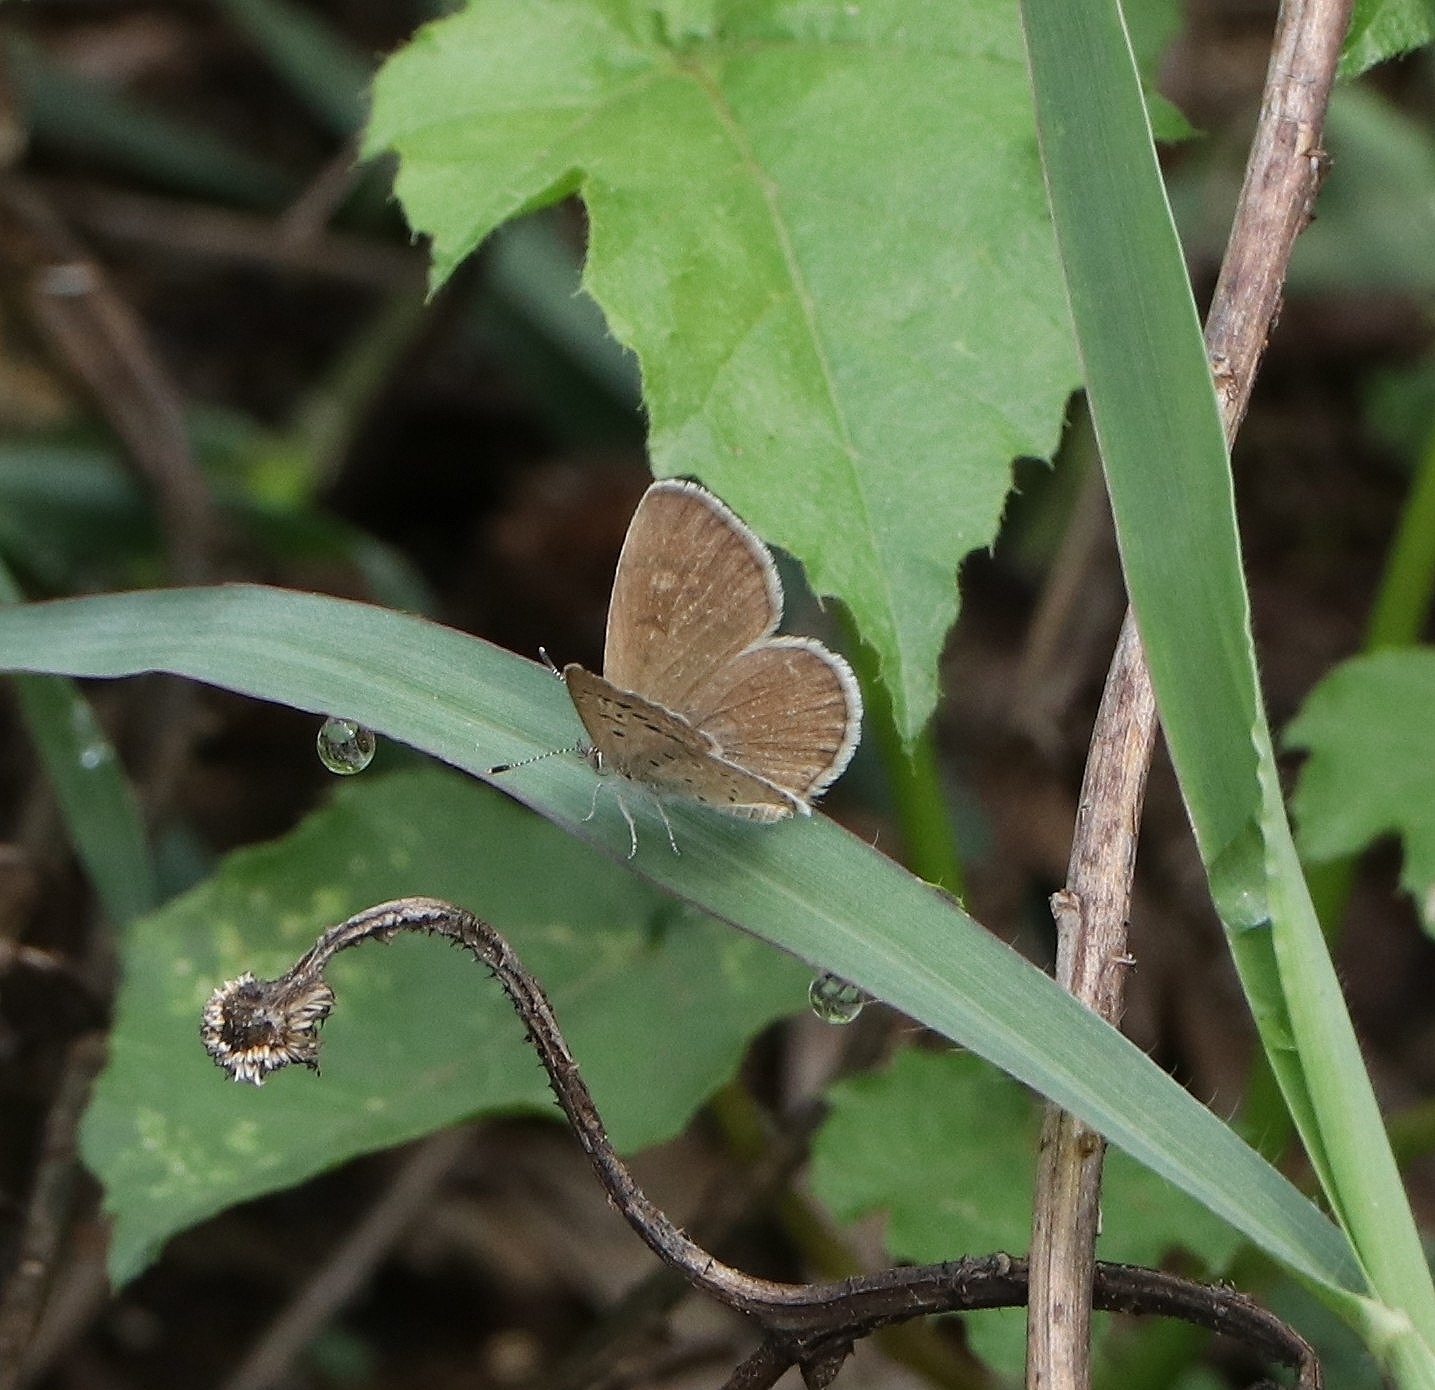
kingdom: Animalia
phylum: Arthropoda
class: Insecta
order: Lepidoptera
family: Lycaenidae
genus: Zizeeria
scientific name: Zizeeria karsandra
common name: Dark grass blue
